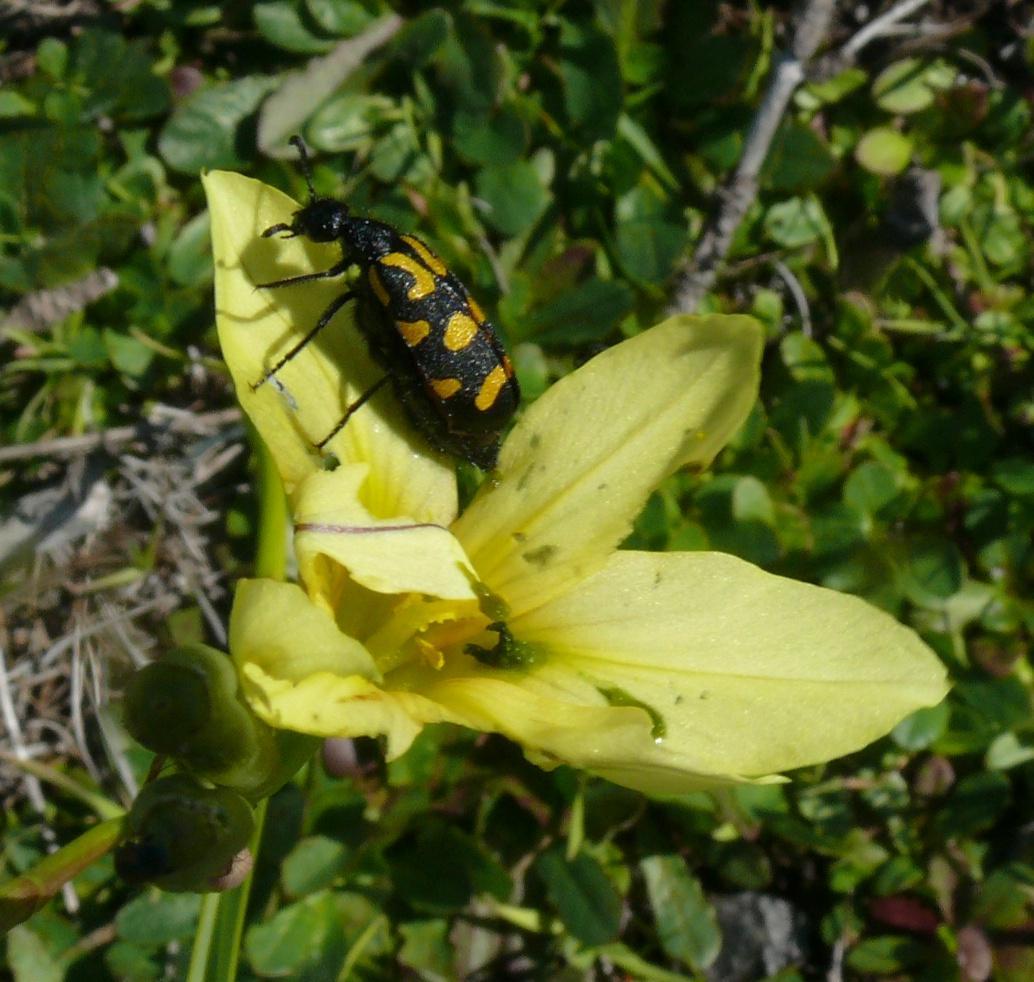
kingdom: Animalia
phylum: Arthropoda
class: Insecta
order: Coleoptera
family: Meloidae
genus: Ceroctis
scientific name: Ceroctis capensis
